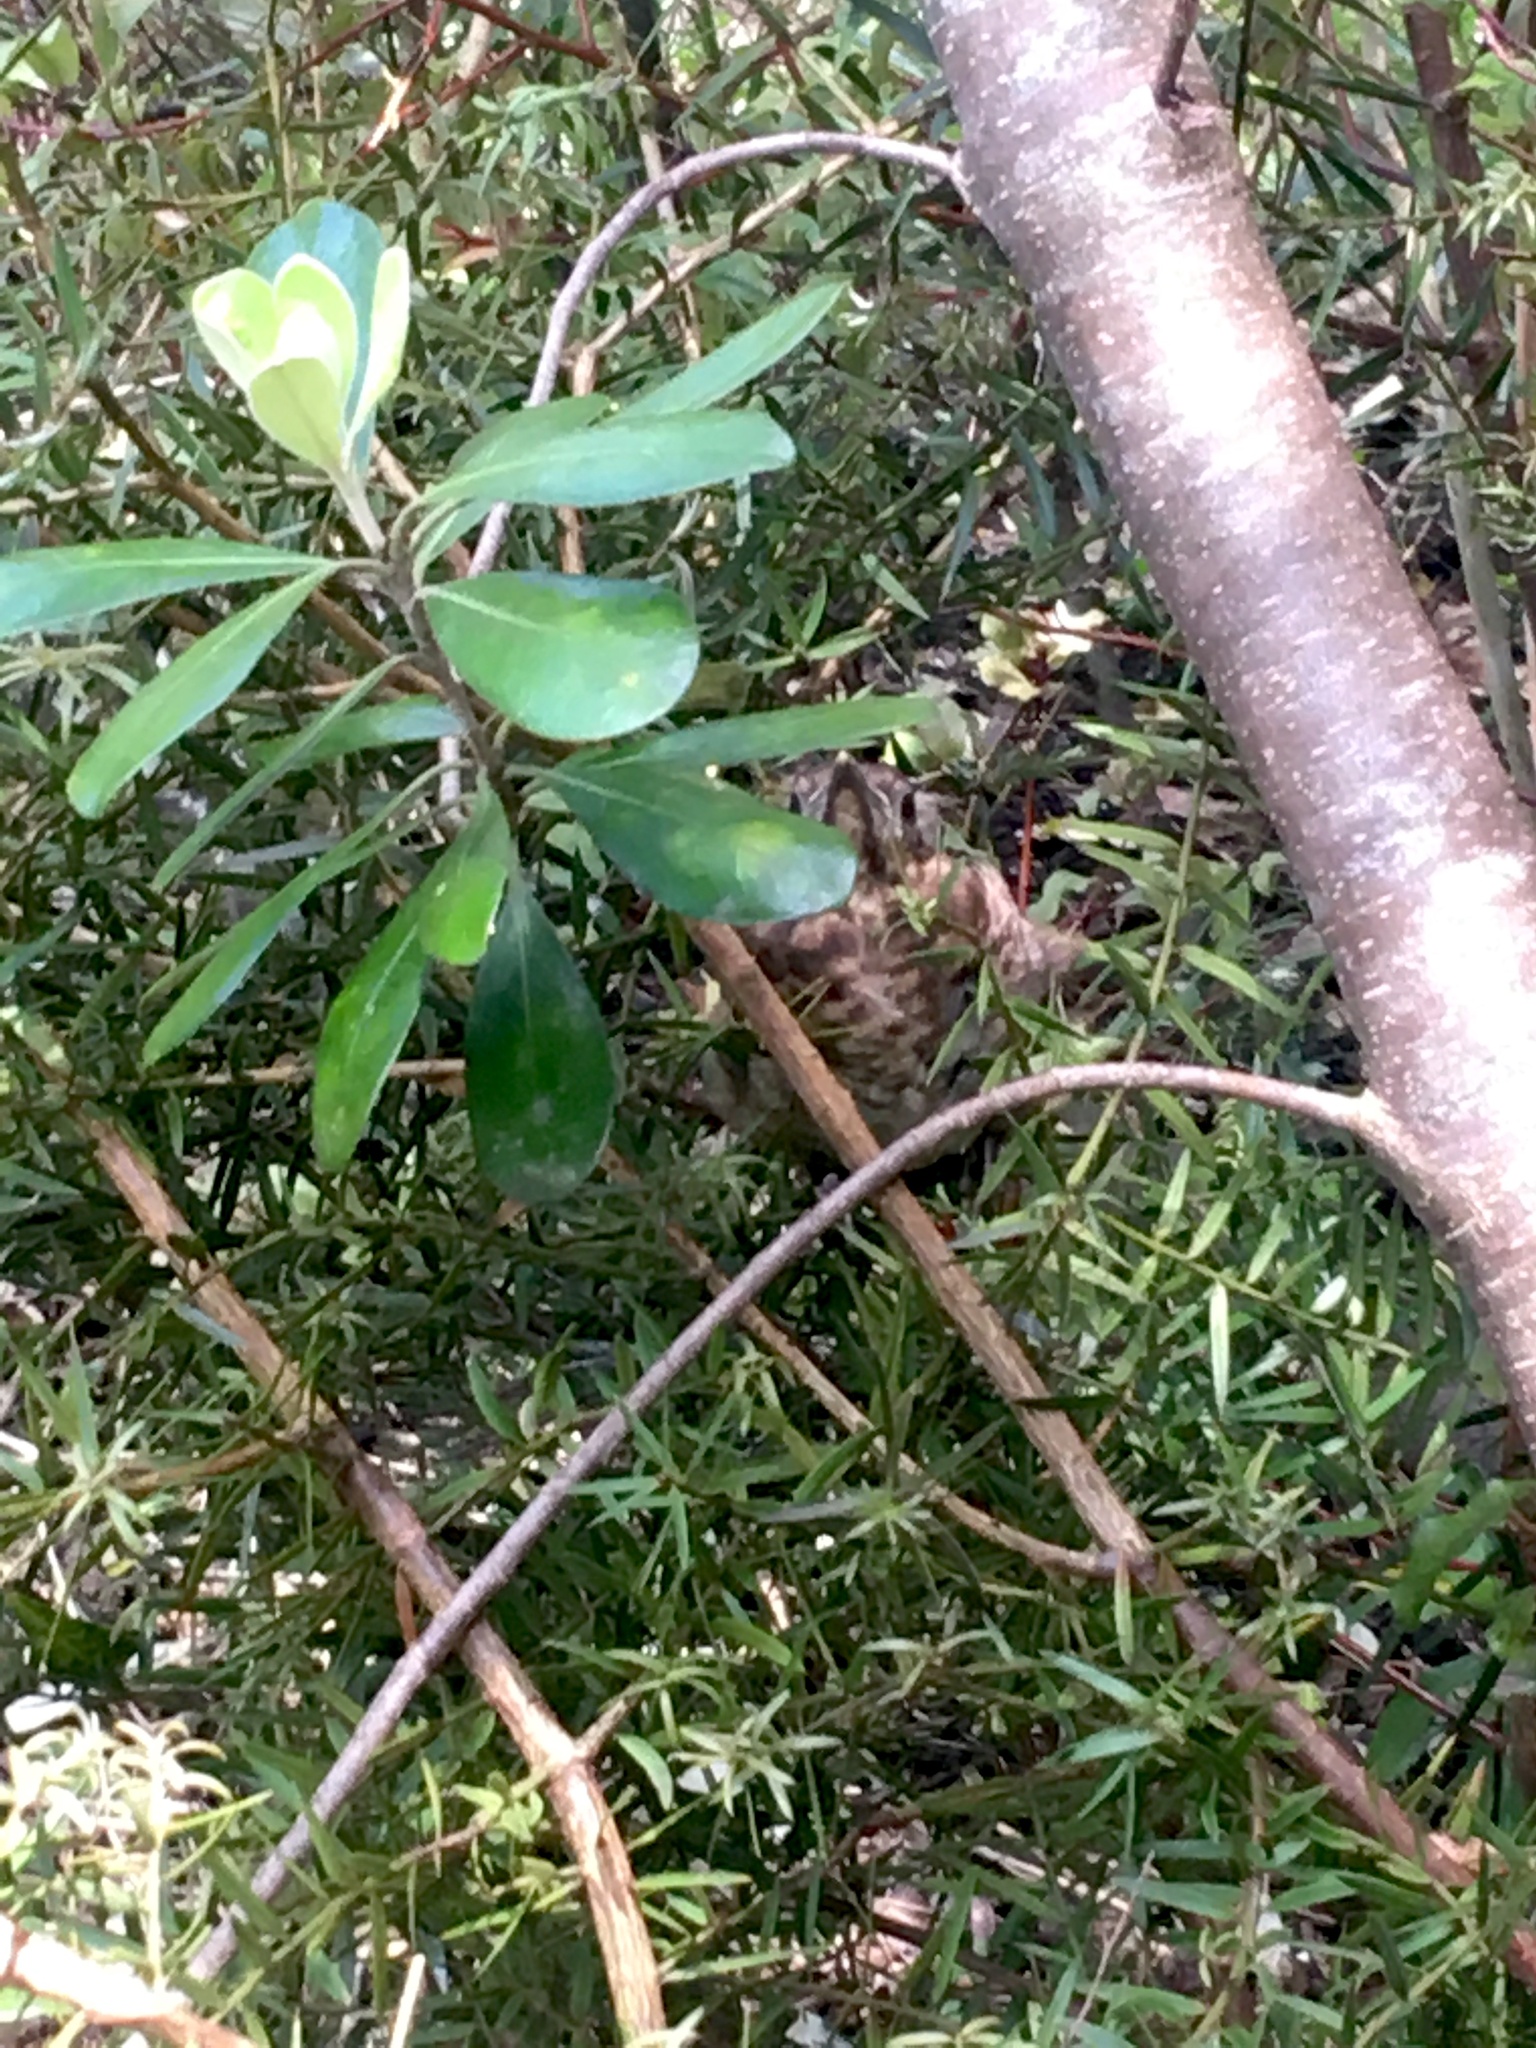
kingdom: Animalia
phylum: Chordata
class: Aves
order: Passeriformes
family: Turdidae
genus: Turdus
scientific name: Turdus merula
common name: Common blackbird
